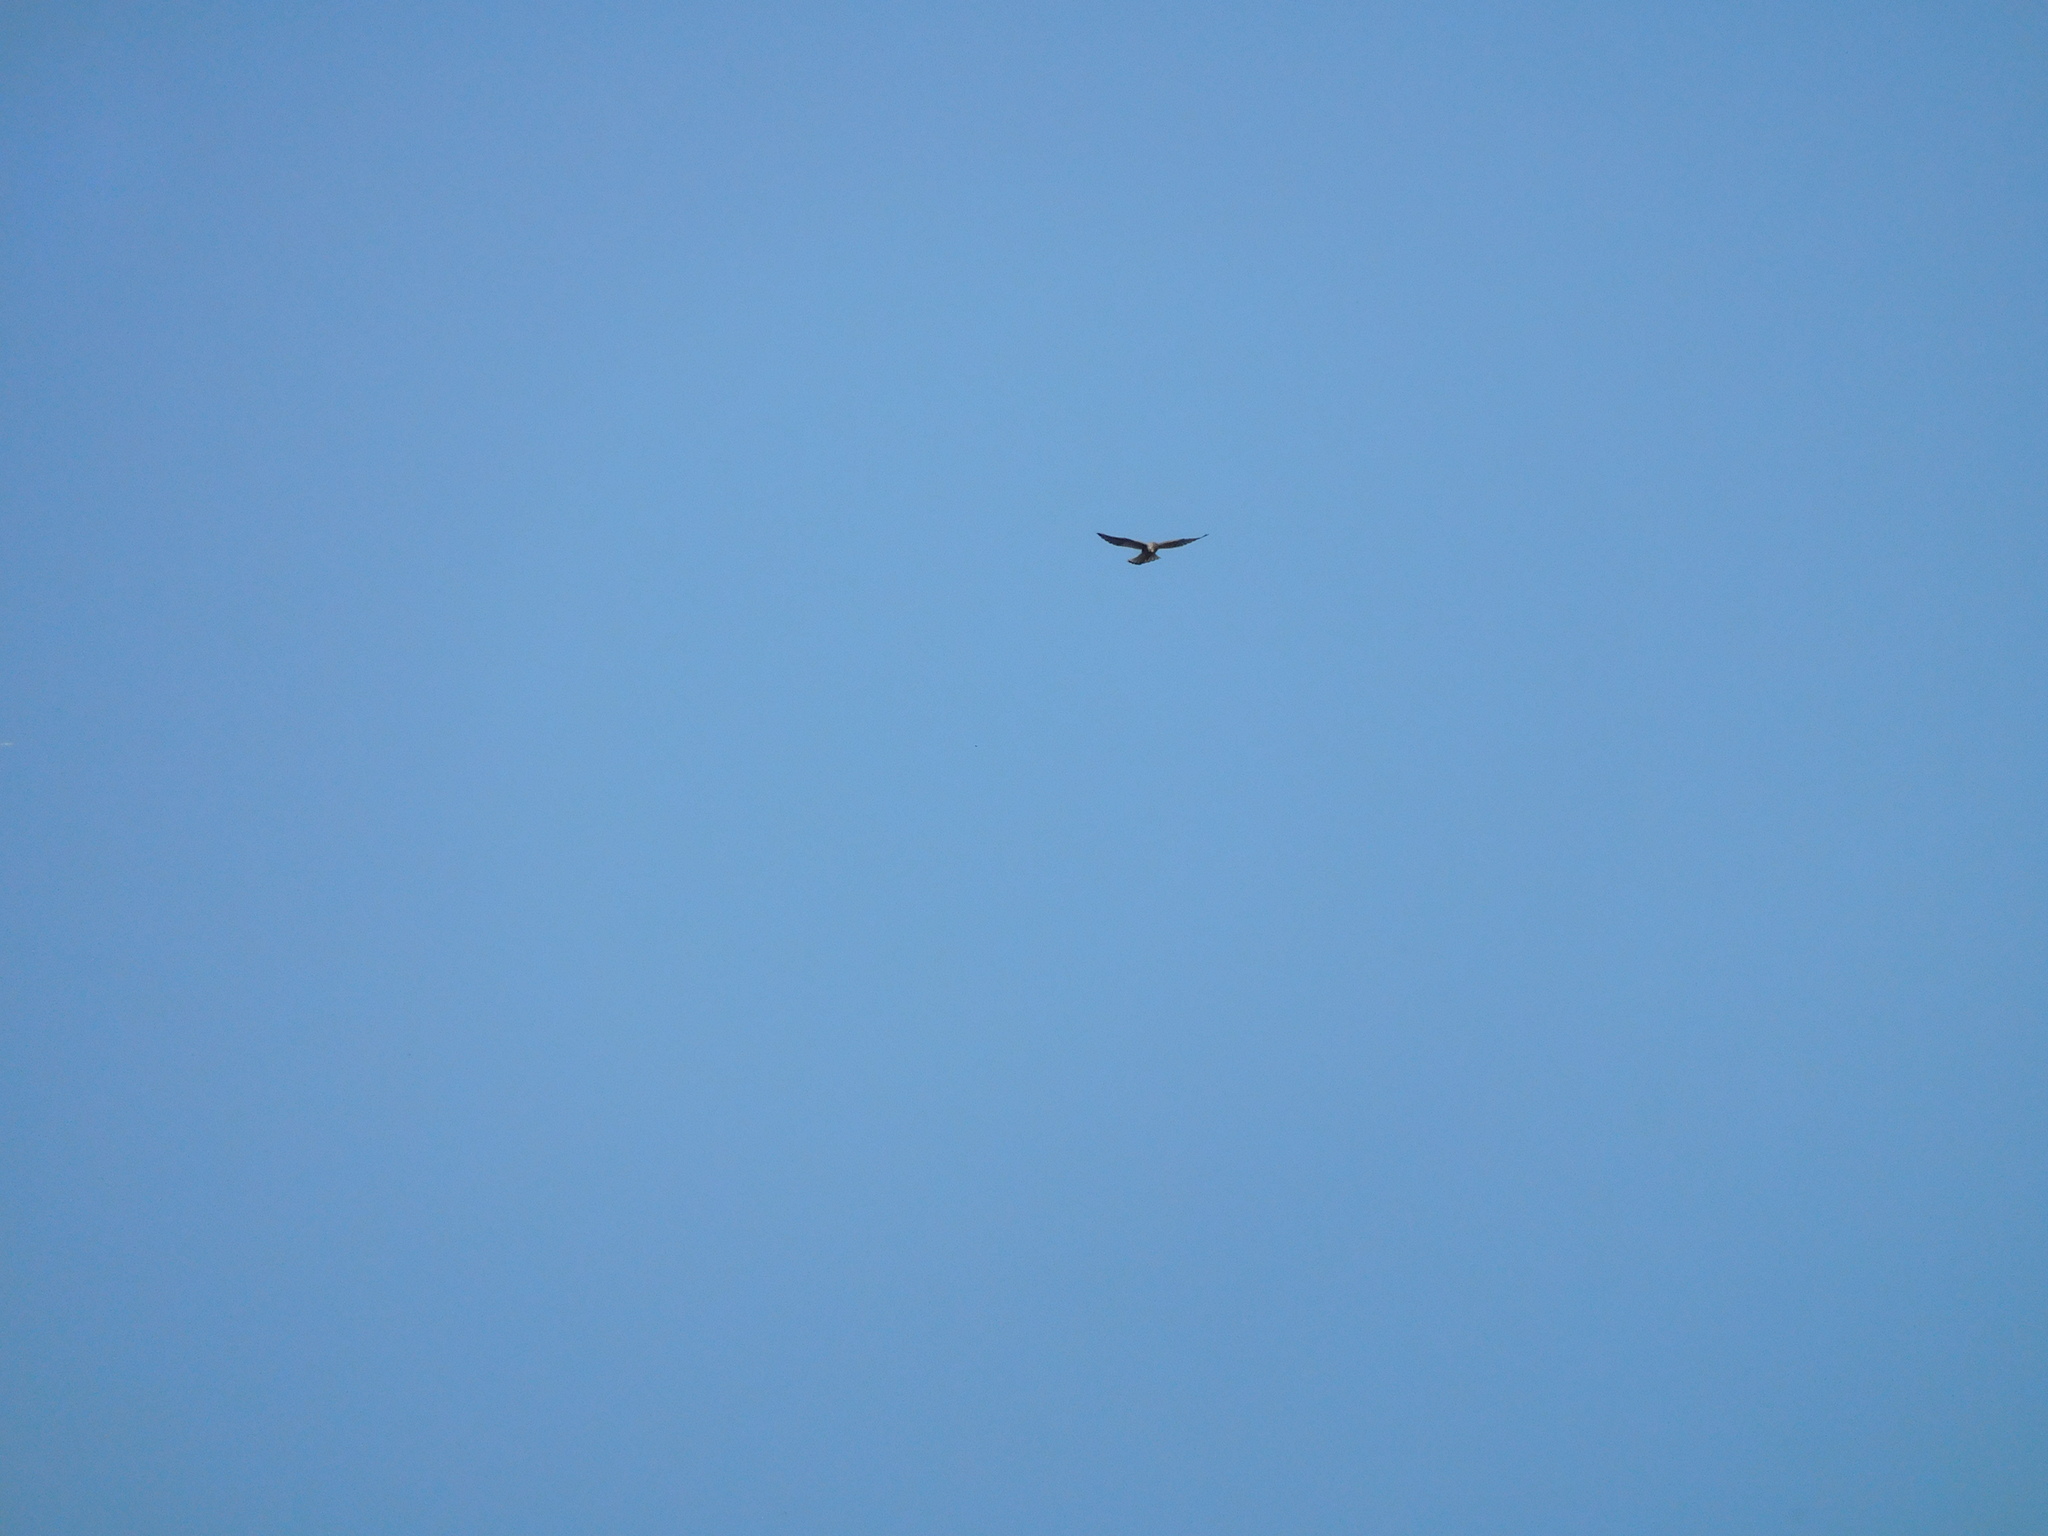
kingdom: Animalia
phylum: Chordata
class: Aves
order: Falconiformes
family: Falconidae
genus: Falco
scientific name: Falco tinnunculus
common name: Common kestrel
